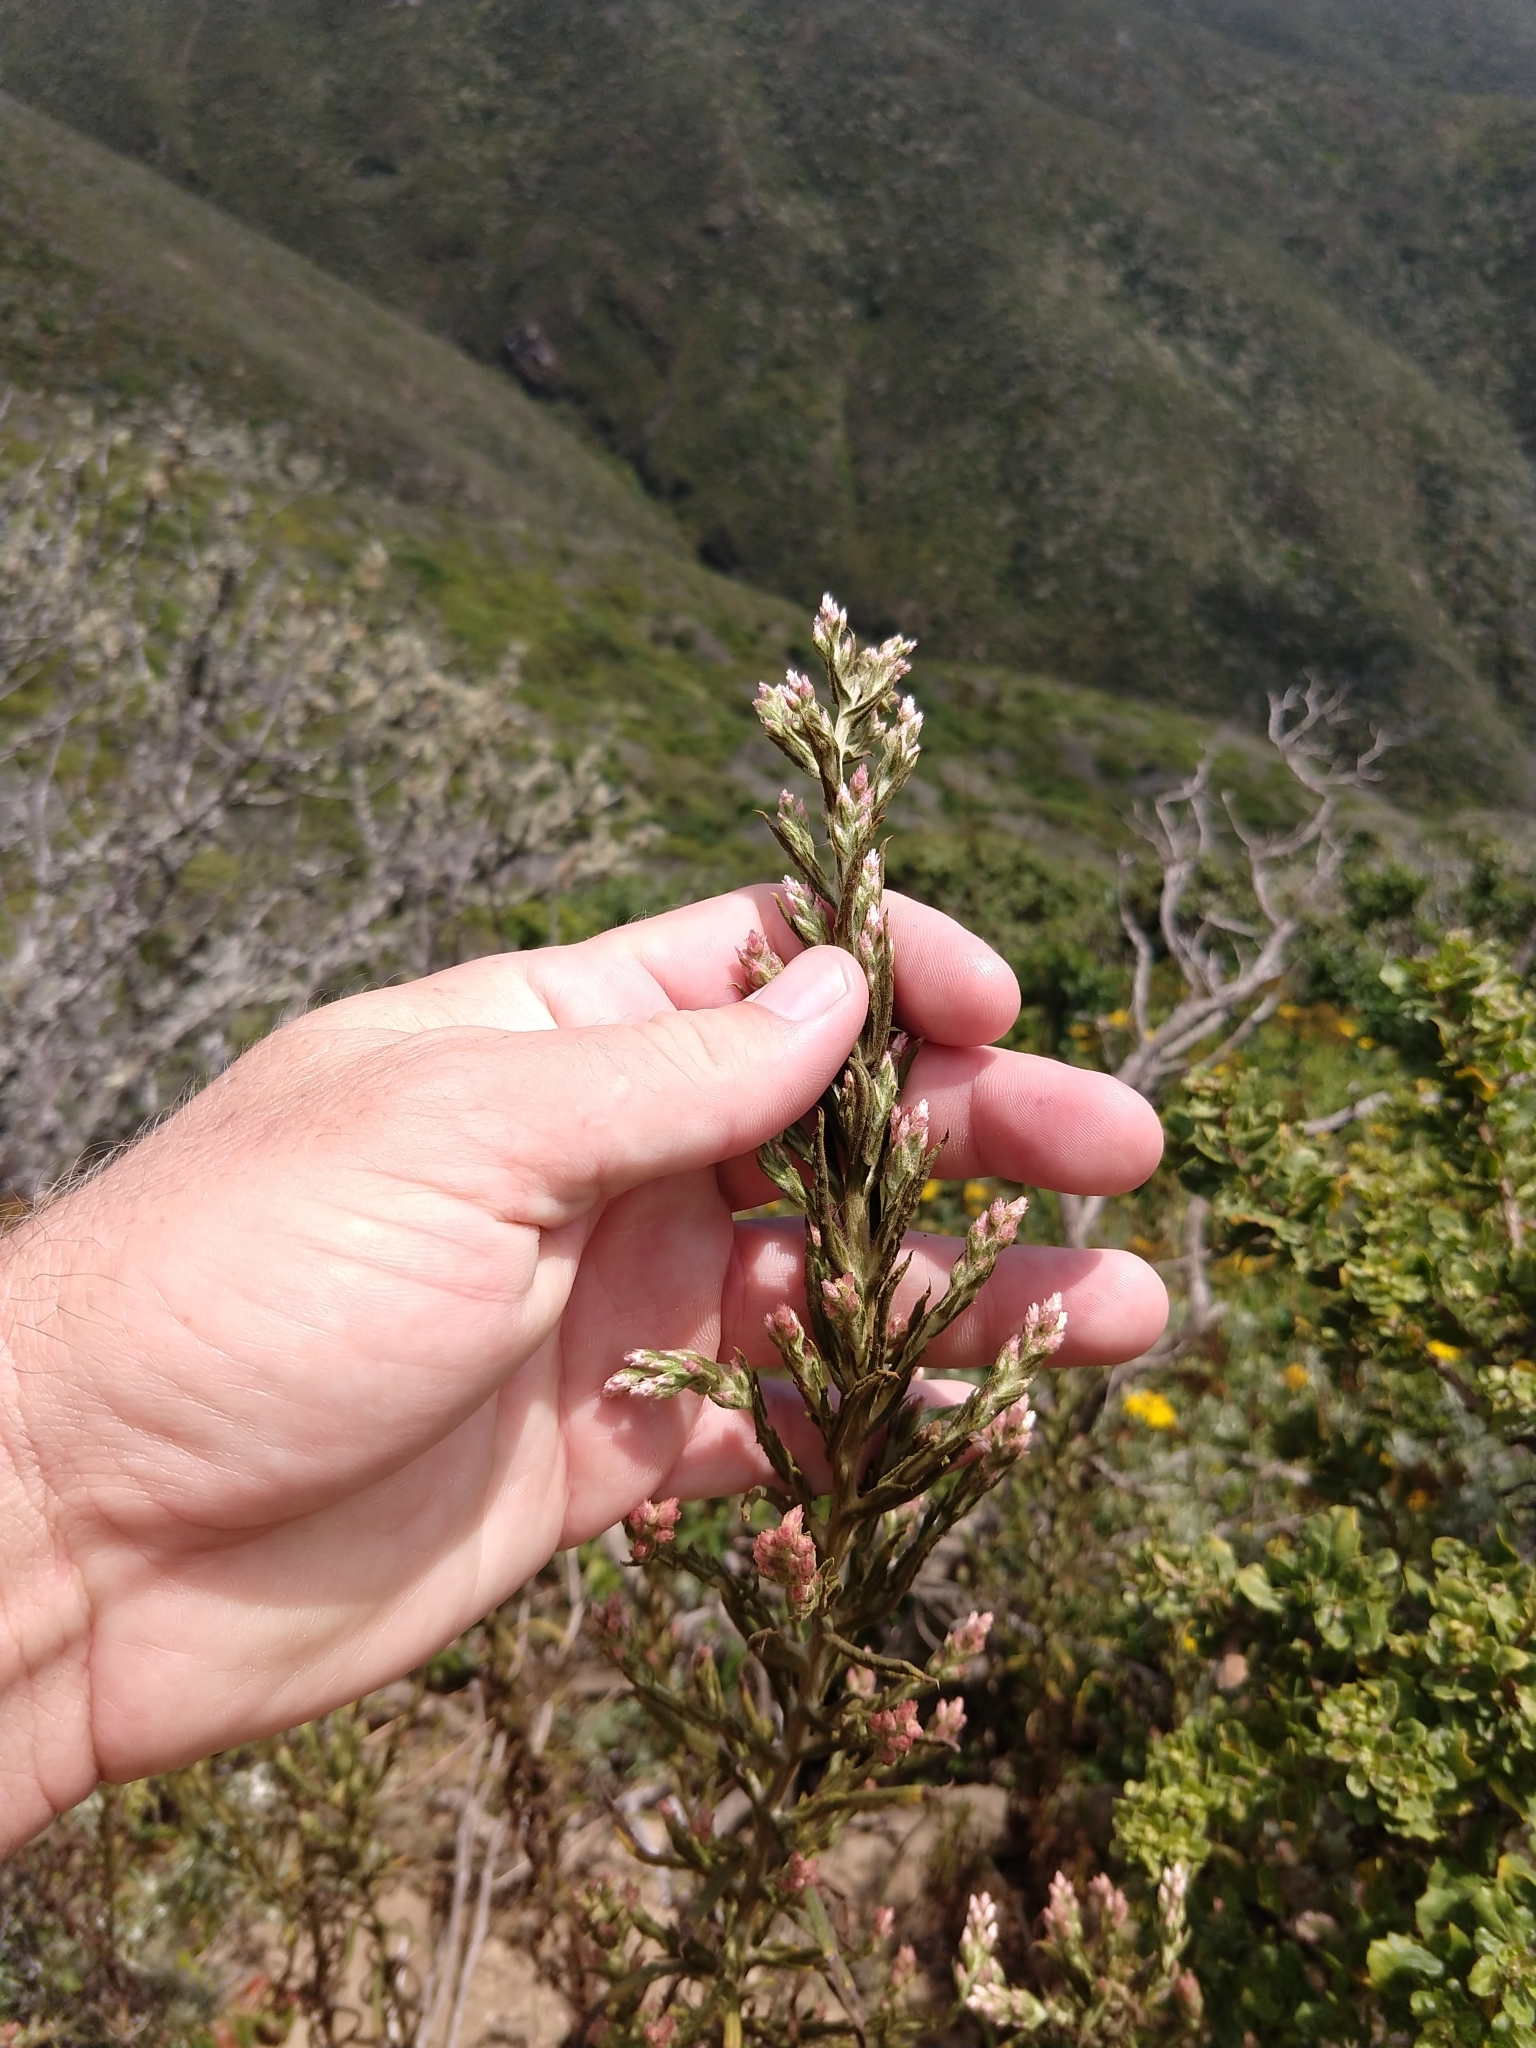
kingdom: Plantae
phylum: Tracheophyta
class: Magnoliopsida
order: Asterales
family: Asteraceae
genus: Pseudognaphalium
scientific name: Pseudognaphalium ramosissimum
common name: Pink rabbit-tobacco
